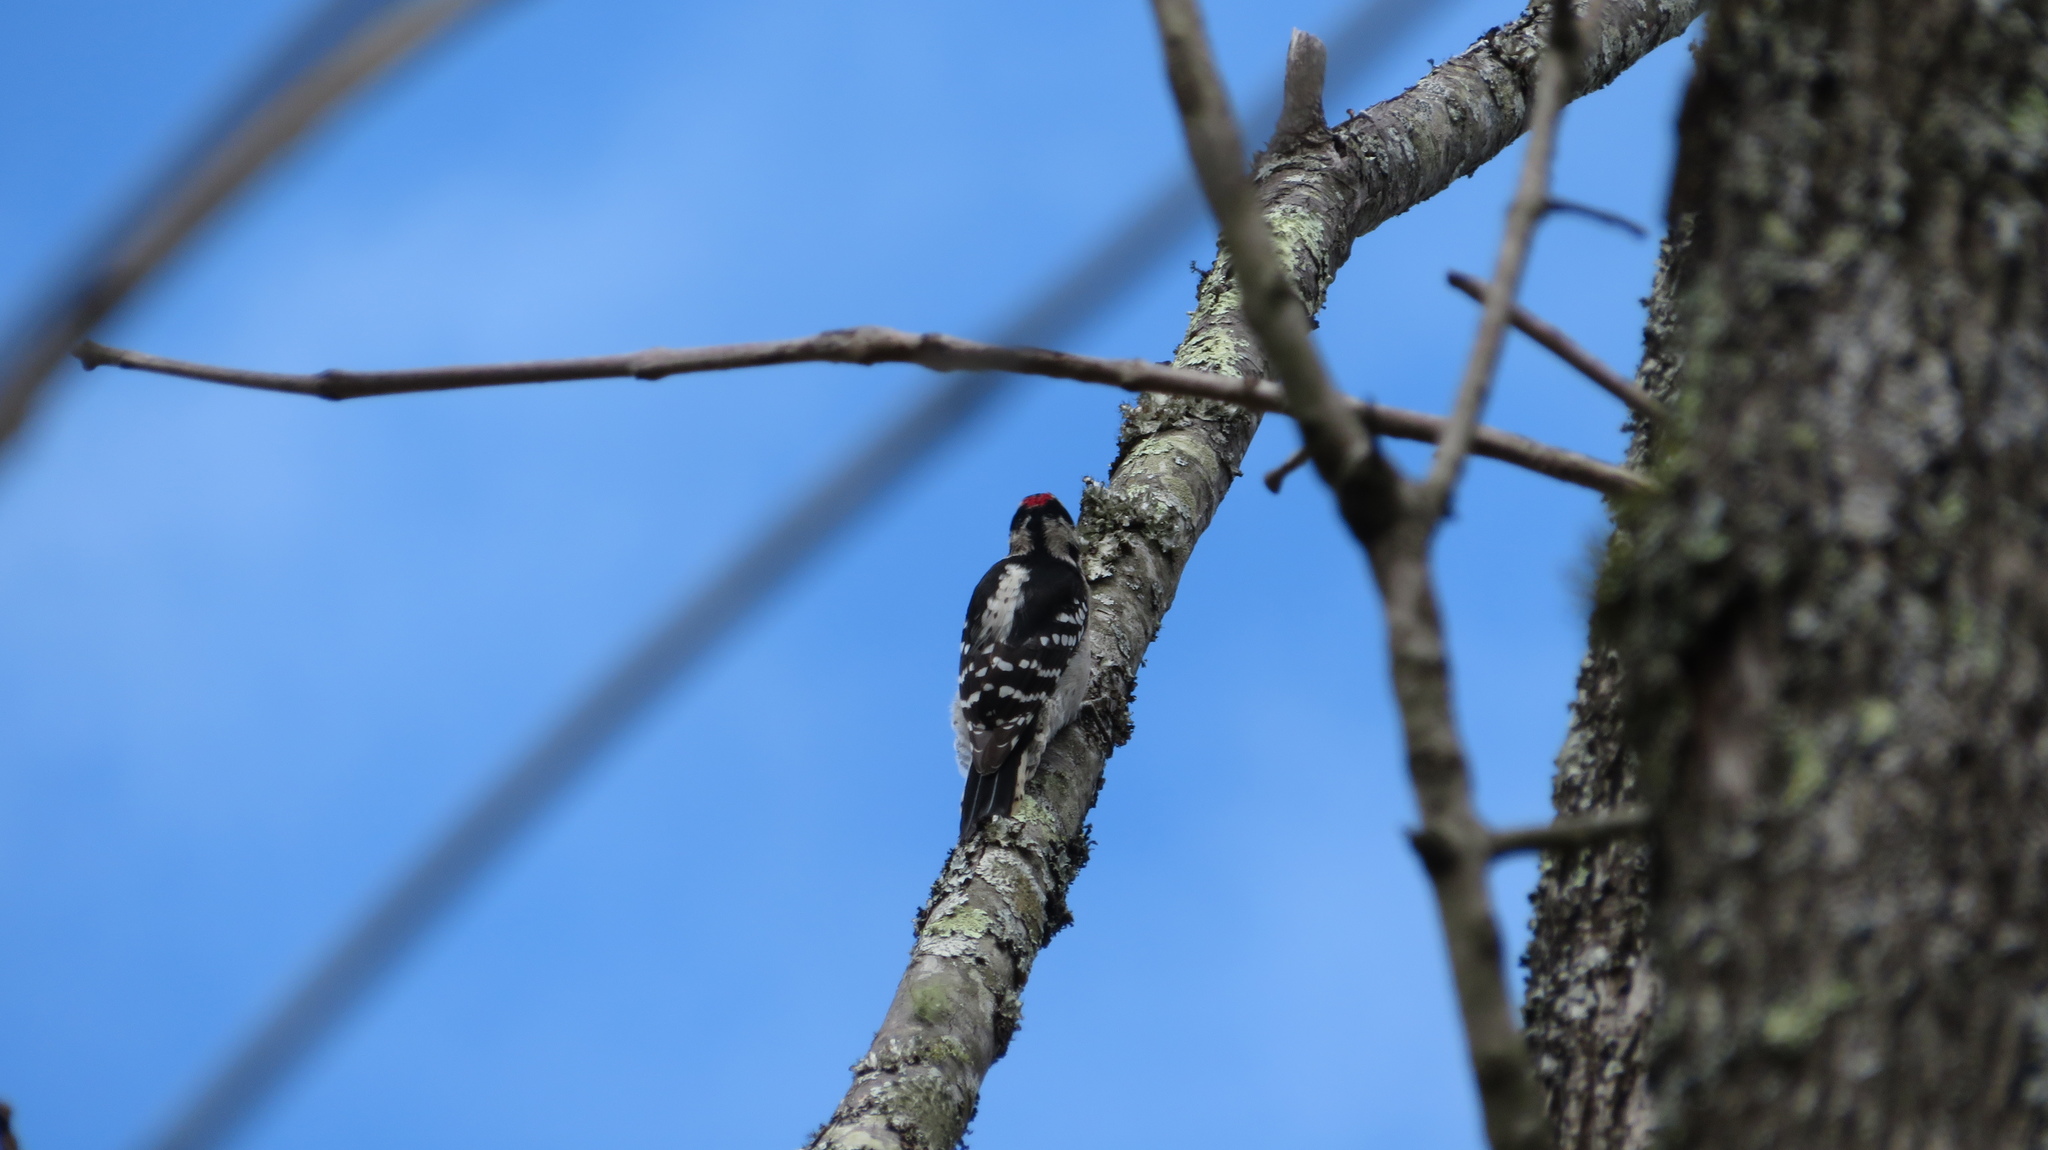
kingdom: Animalia
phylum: Chordata
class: Aves
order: Piciformes
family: Picidae
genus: Dryobates
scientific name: Dryobates pubescens
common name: Downy woodpecker
